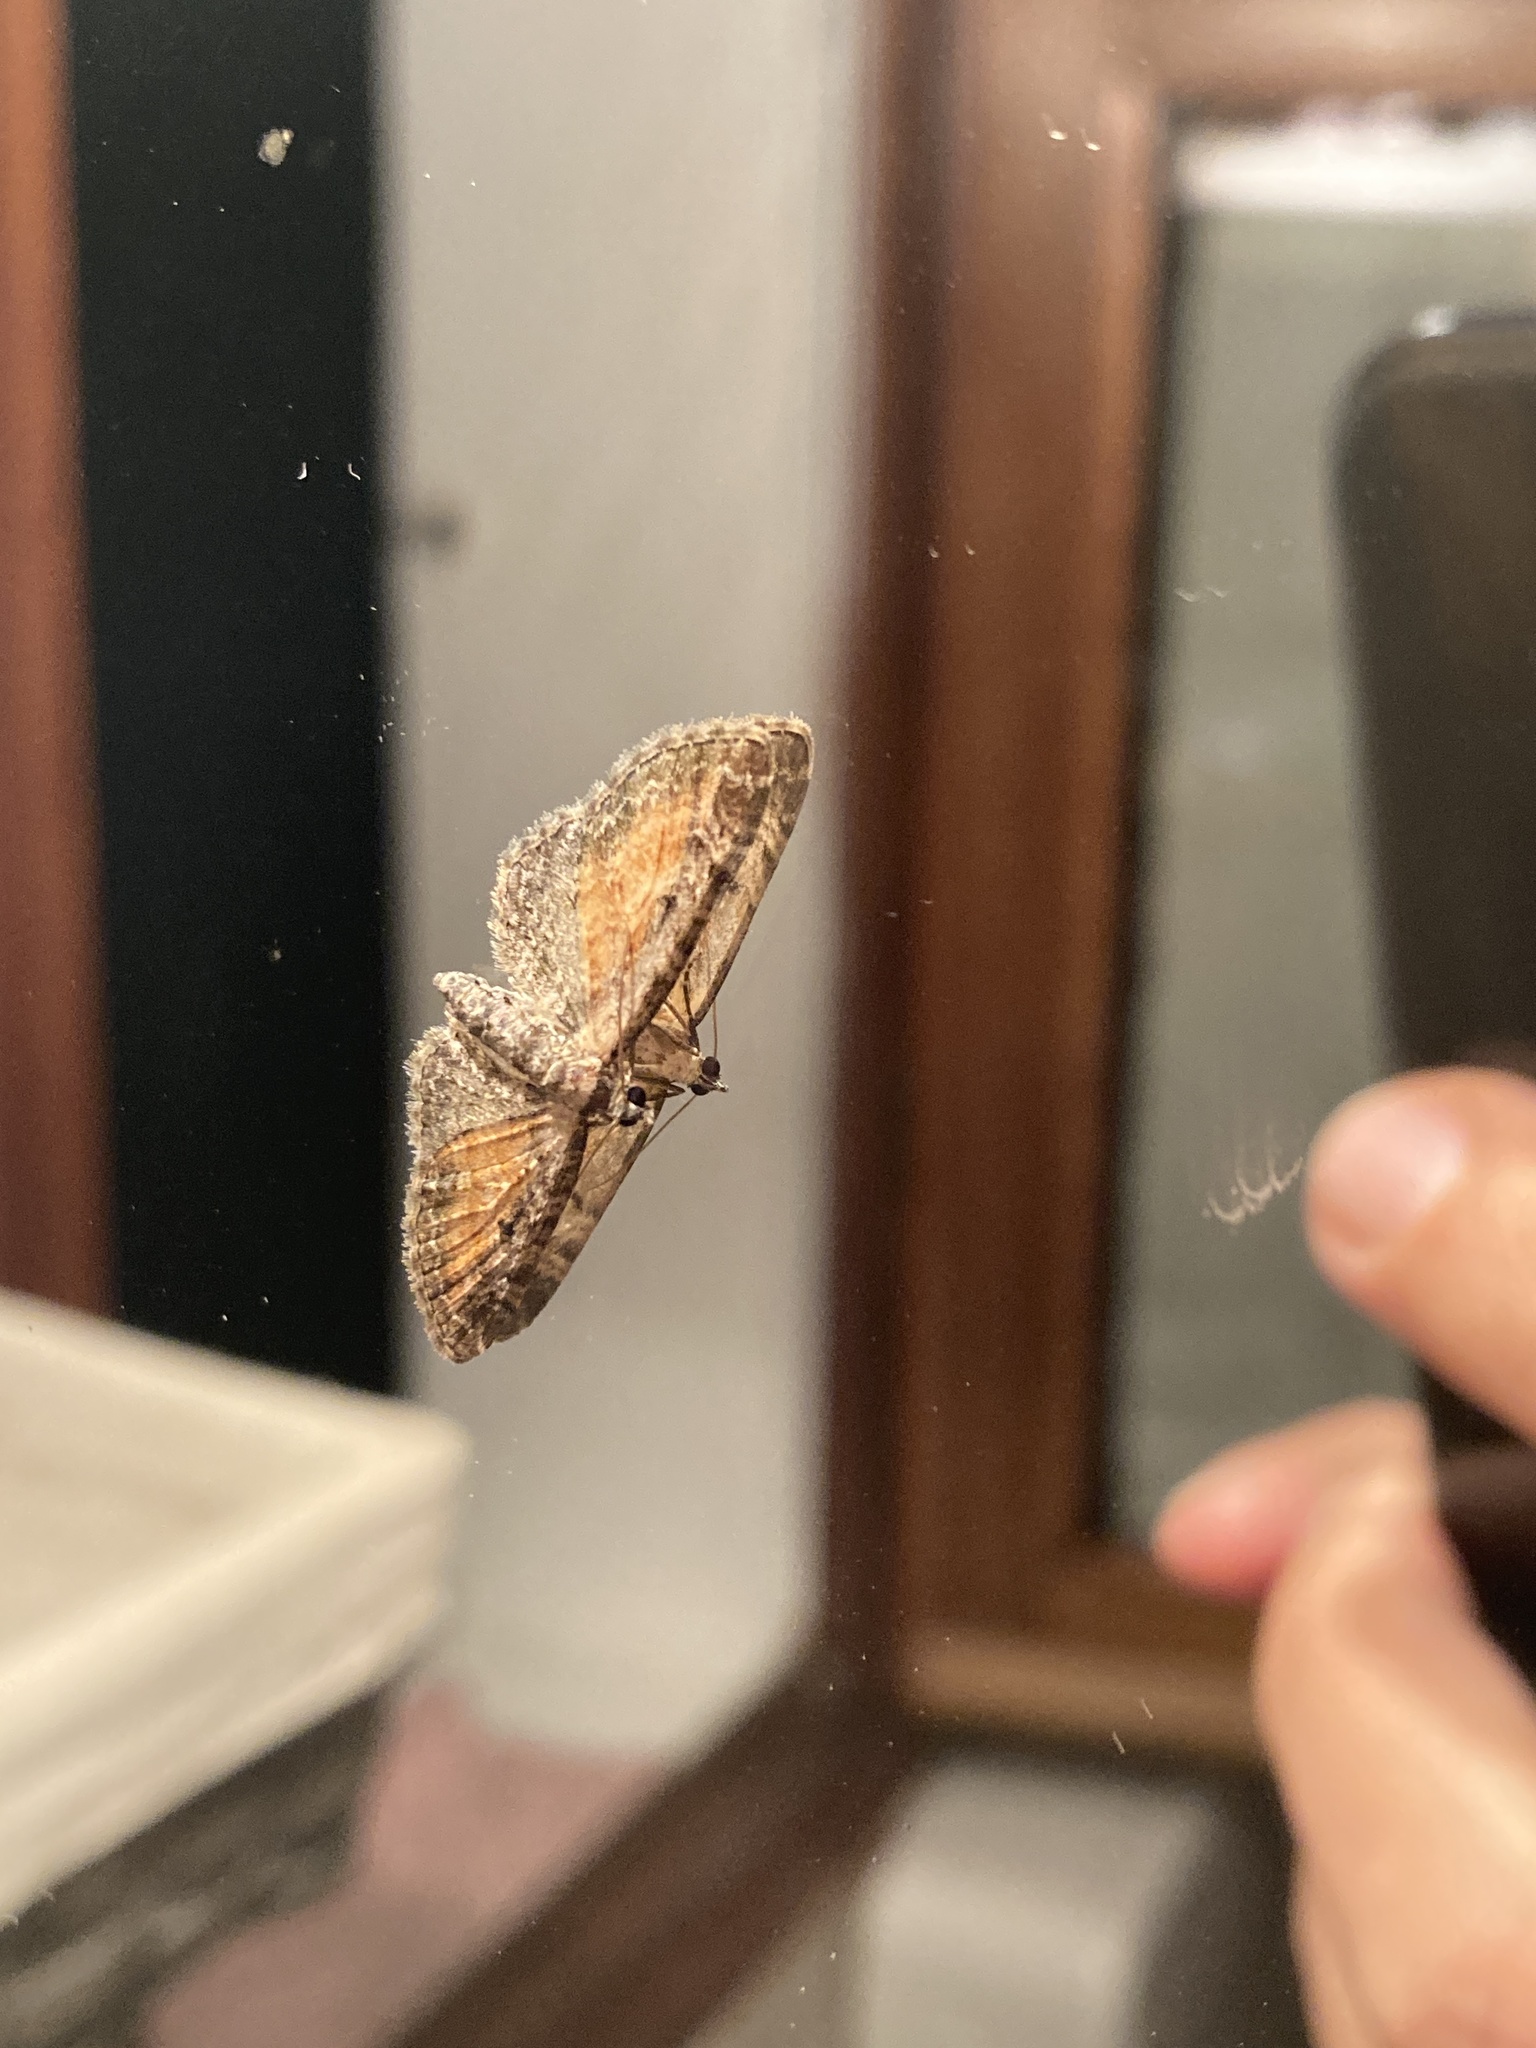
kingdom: Animalia
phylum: Arthropoda
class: Insecta
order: Lepidoptera
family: Geometridae
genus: Eupithecia
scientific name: Eupithecia icterata
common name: Tawny speckled pug
